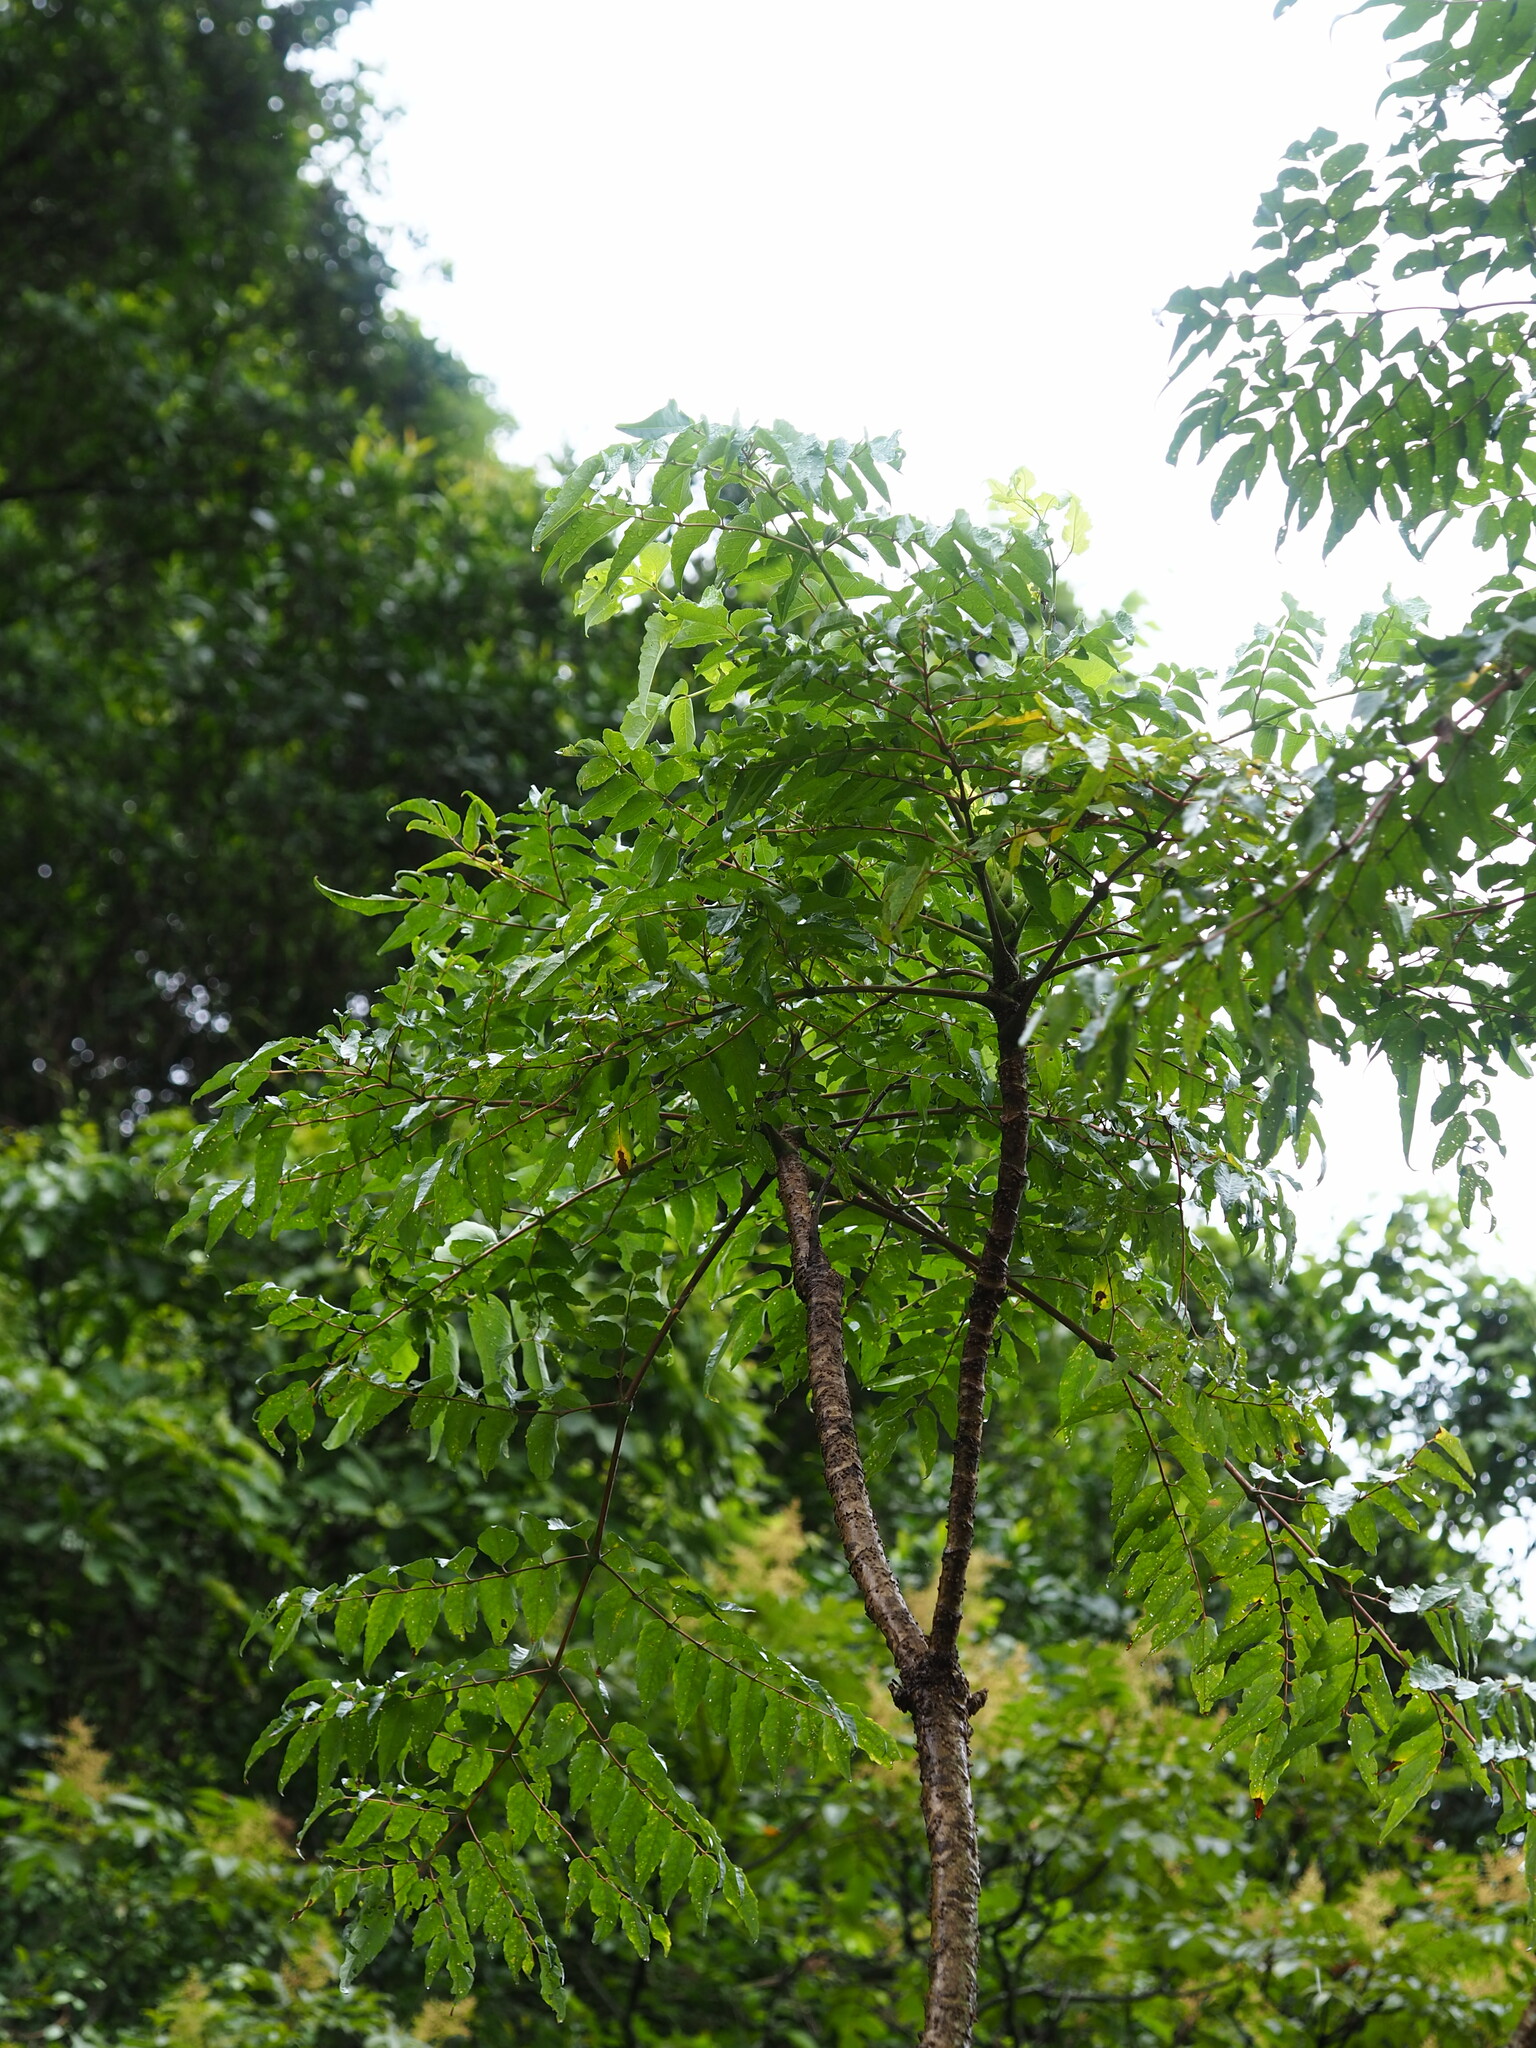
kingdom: Plantae
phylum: Tracheophyta
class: Magnoliopsida
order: Apiales
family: Araliaceae
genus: Aralia
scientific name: Aralia bipinnata
